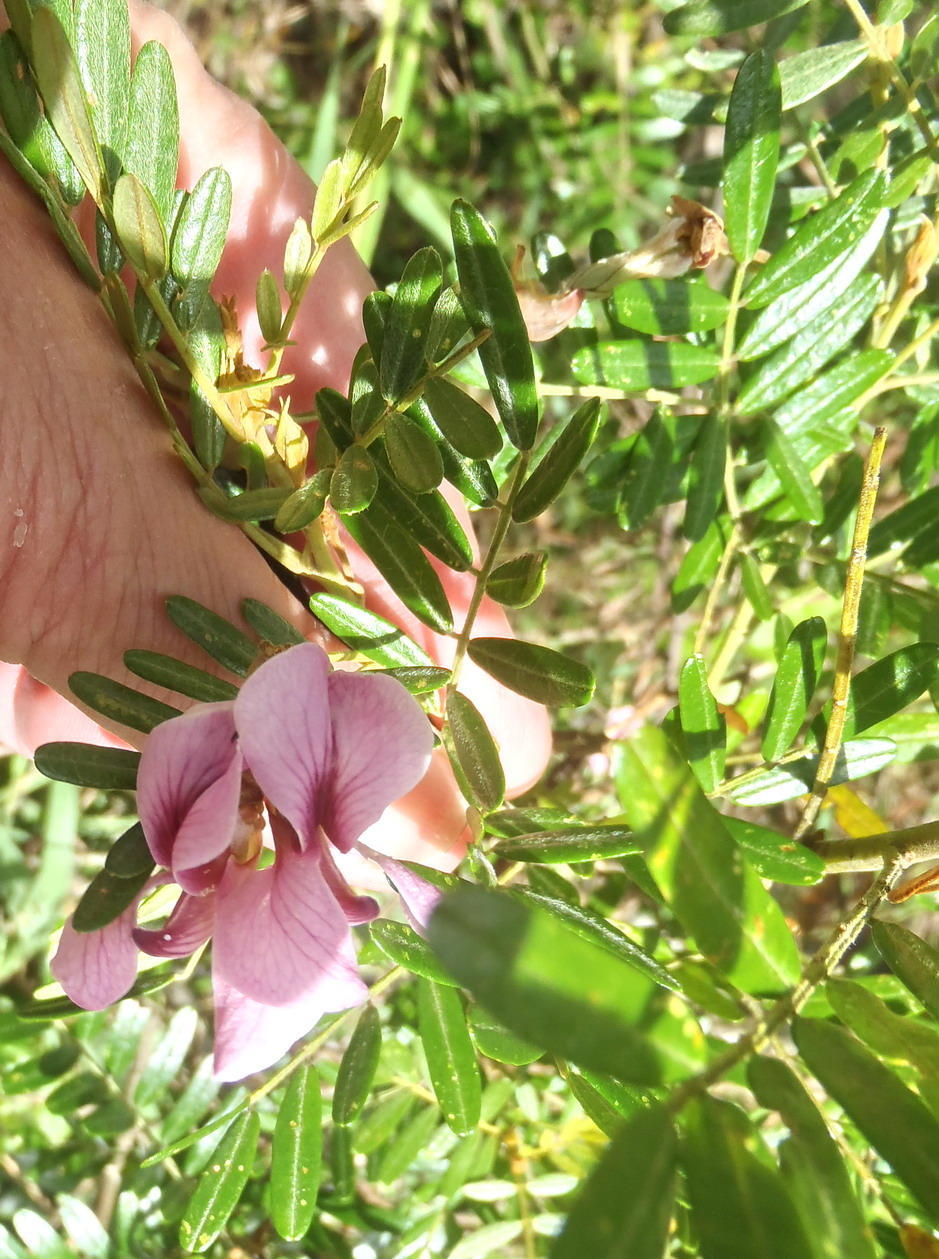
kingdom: Plantae
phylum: Tracheophyta
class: Magnoliopsida
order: Fabales
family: Fabaceae
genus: Virgilia
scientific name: Virgilia oroboides
